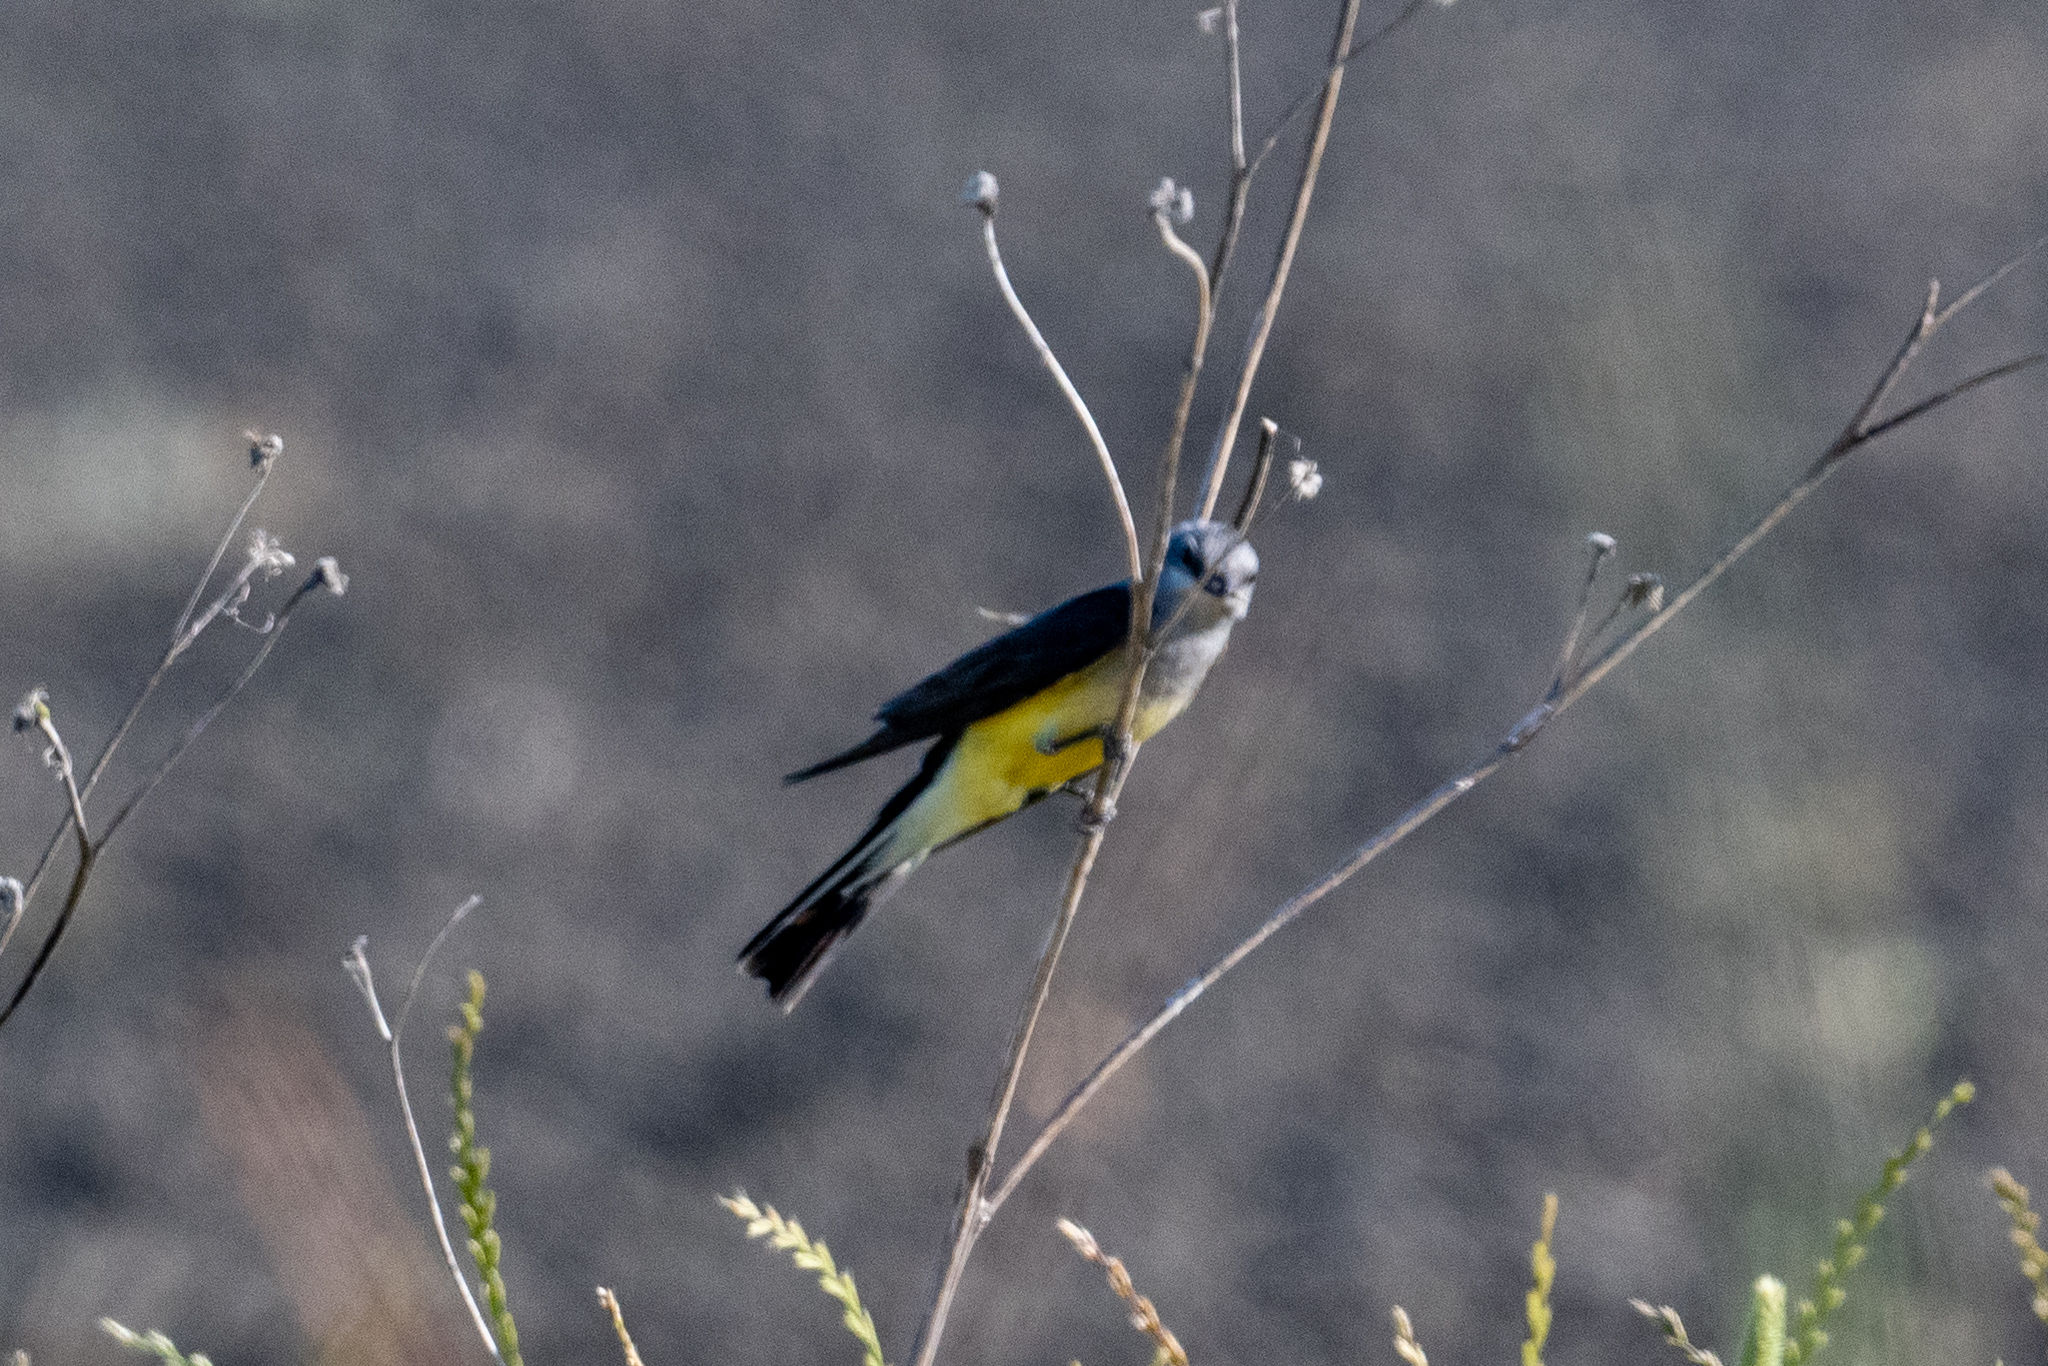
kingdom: Animalia
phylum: Chordata
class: Aves
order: Passeriformes
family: Tyrannidae
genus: Tyrannus
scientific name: Tyrannus verticalis
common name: Western kingbird
